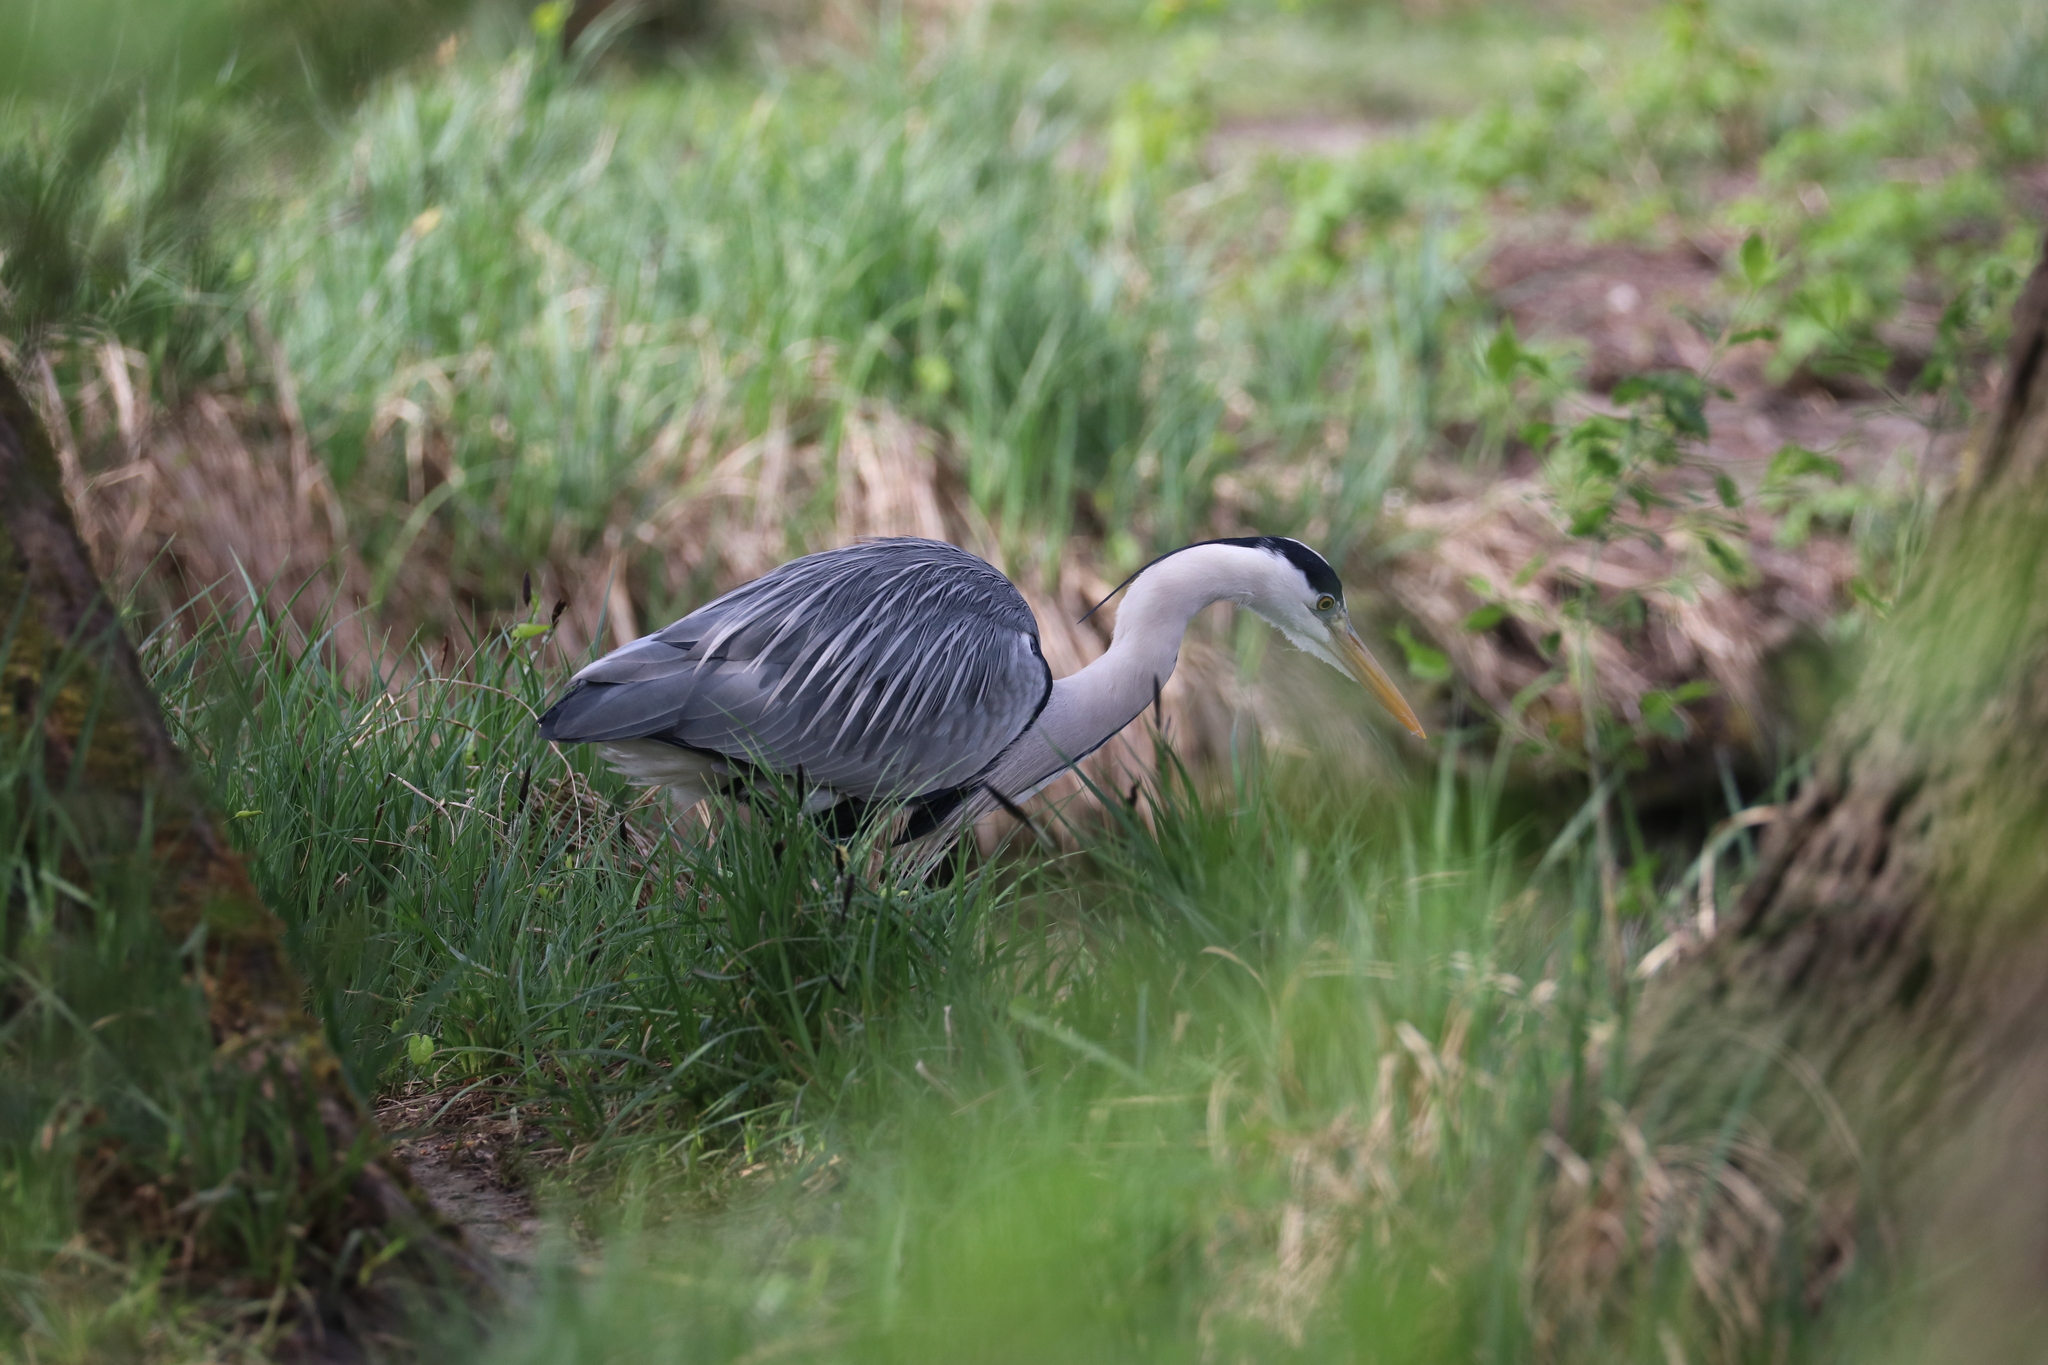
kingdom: Animalia
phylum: Chordata
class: Aves
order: Pelecaniformes
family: Ardeidae
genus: Ardea
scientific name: Ardea cinerea
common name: Grey heron
